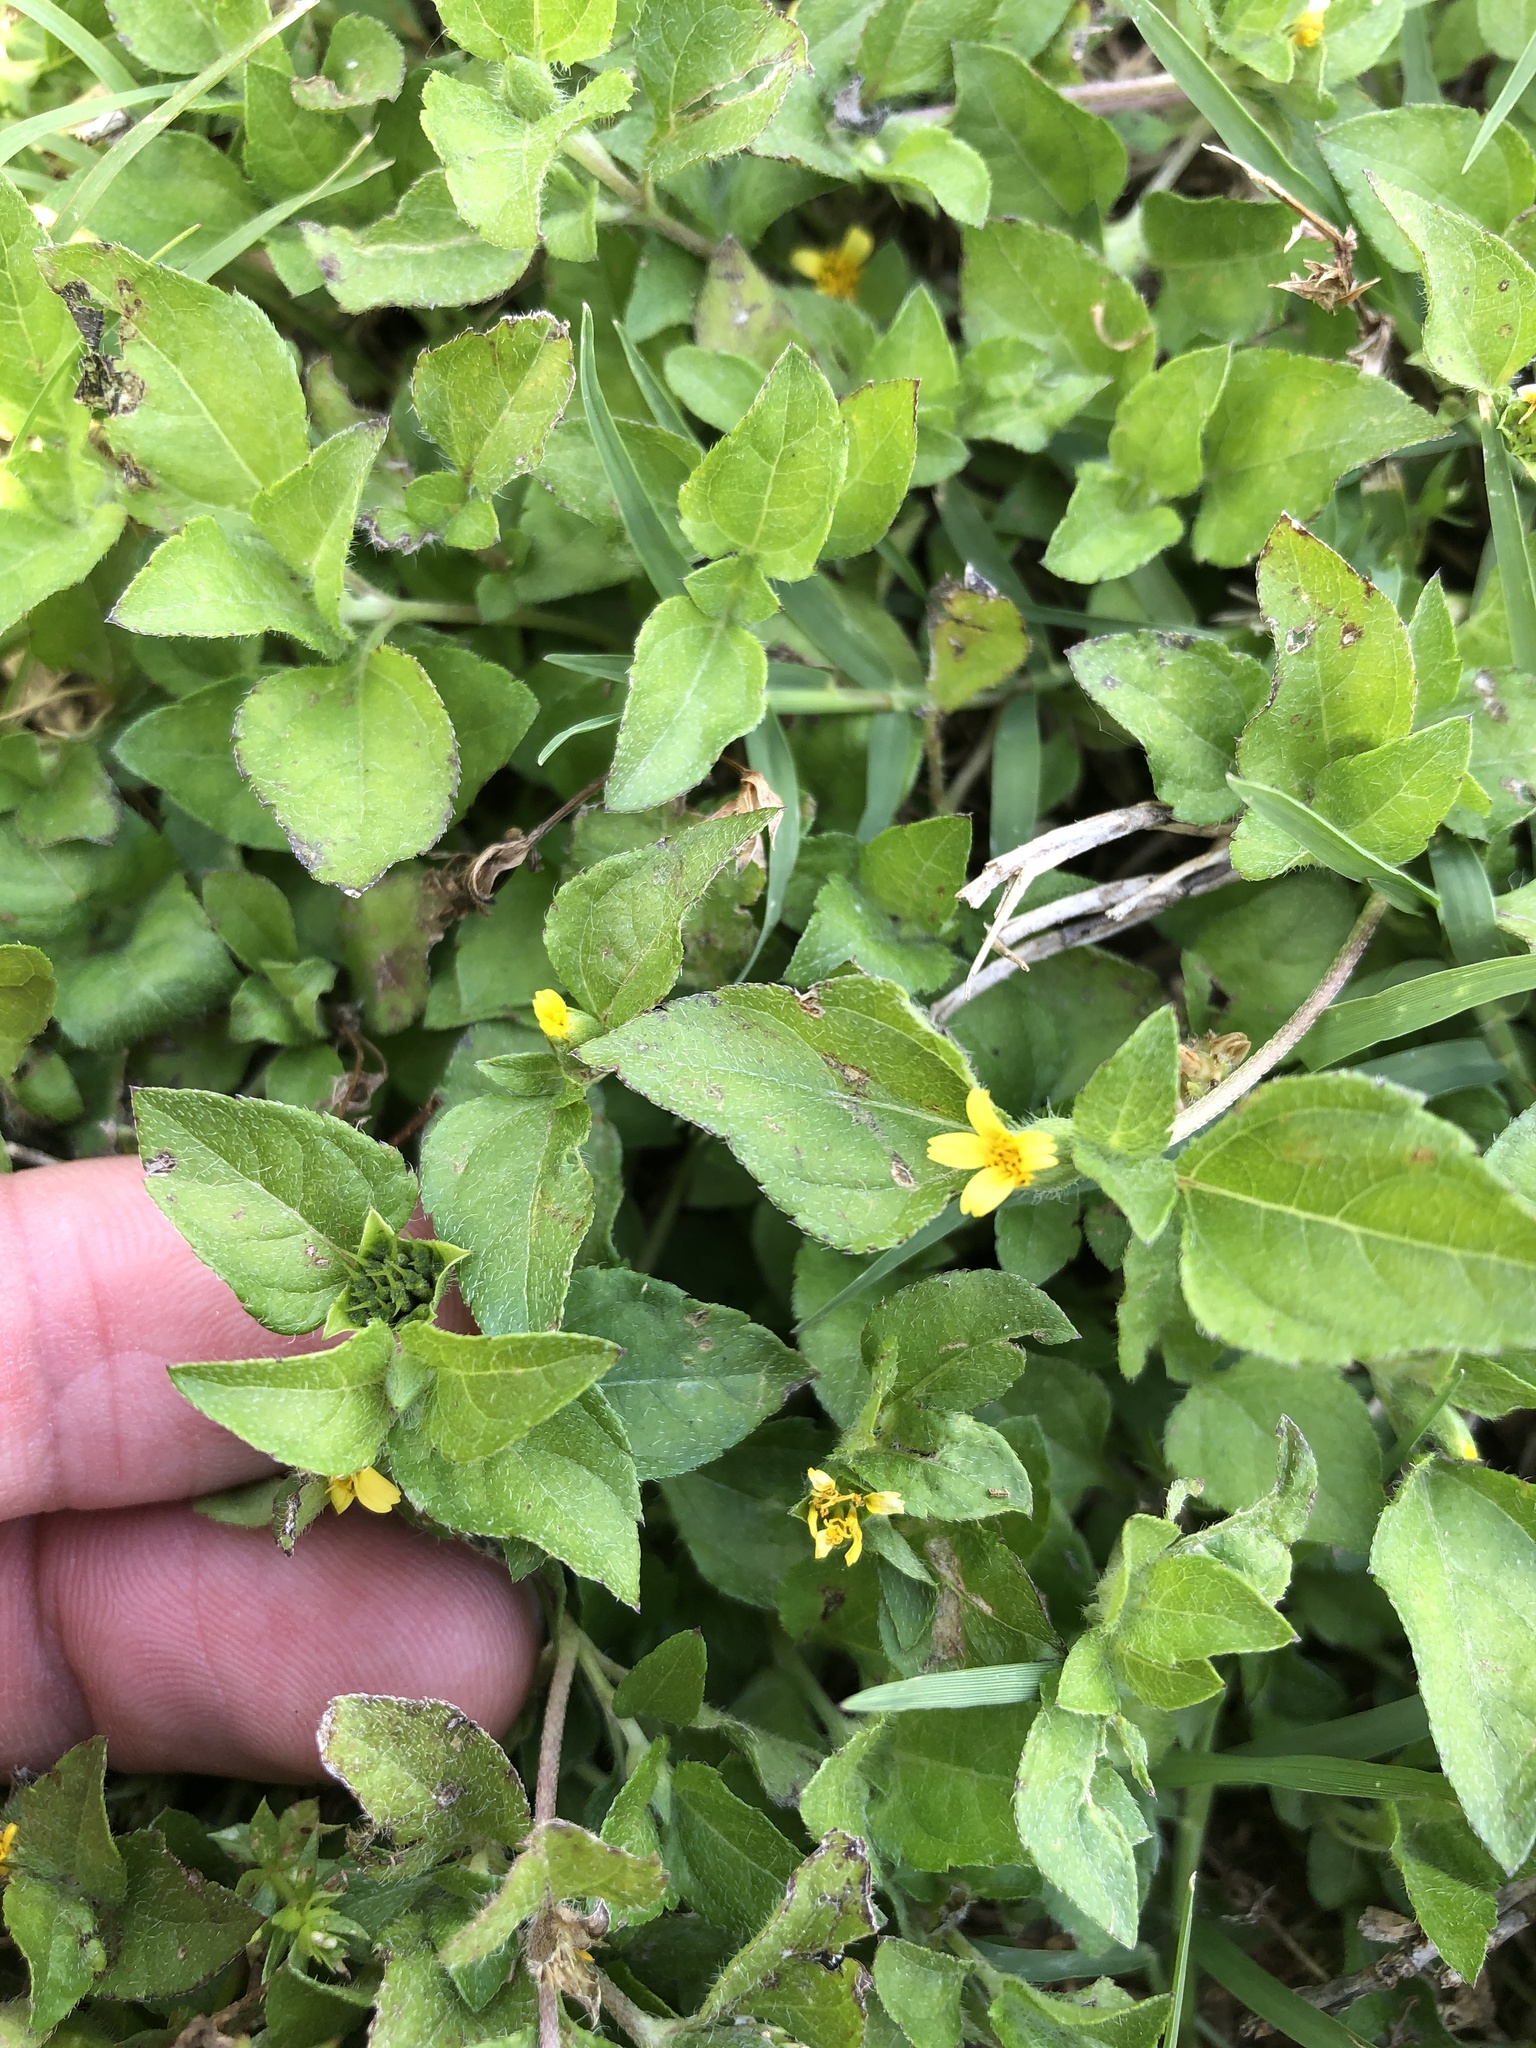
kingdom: Plantae
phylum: Tracheophyta
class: Magnoliopsida
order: Asterales
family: Asteraceae
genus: Calyptocarpus
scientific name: Calyptocarpus vialis
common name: Straggler daisy
